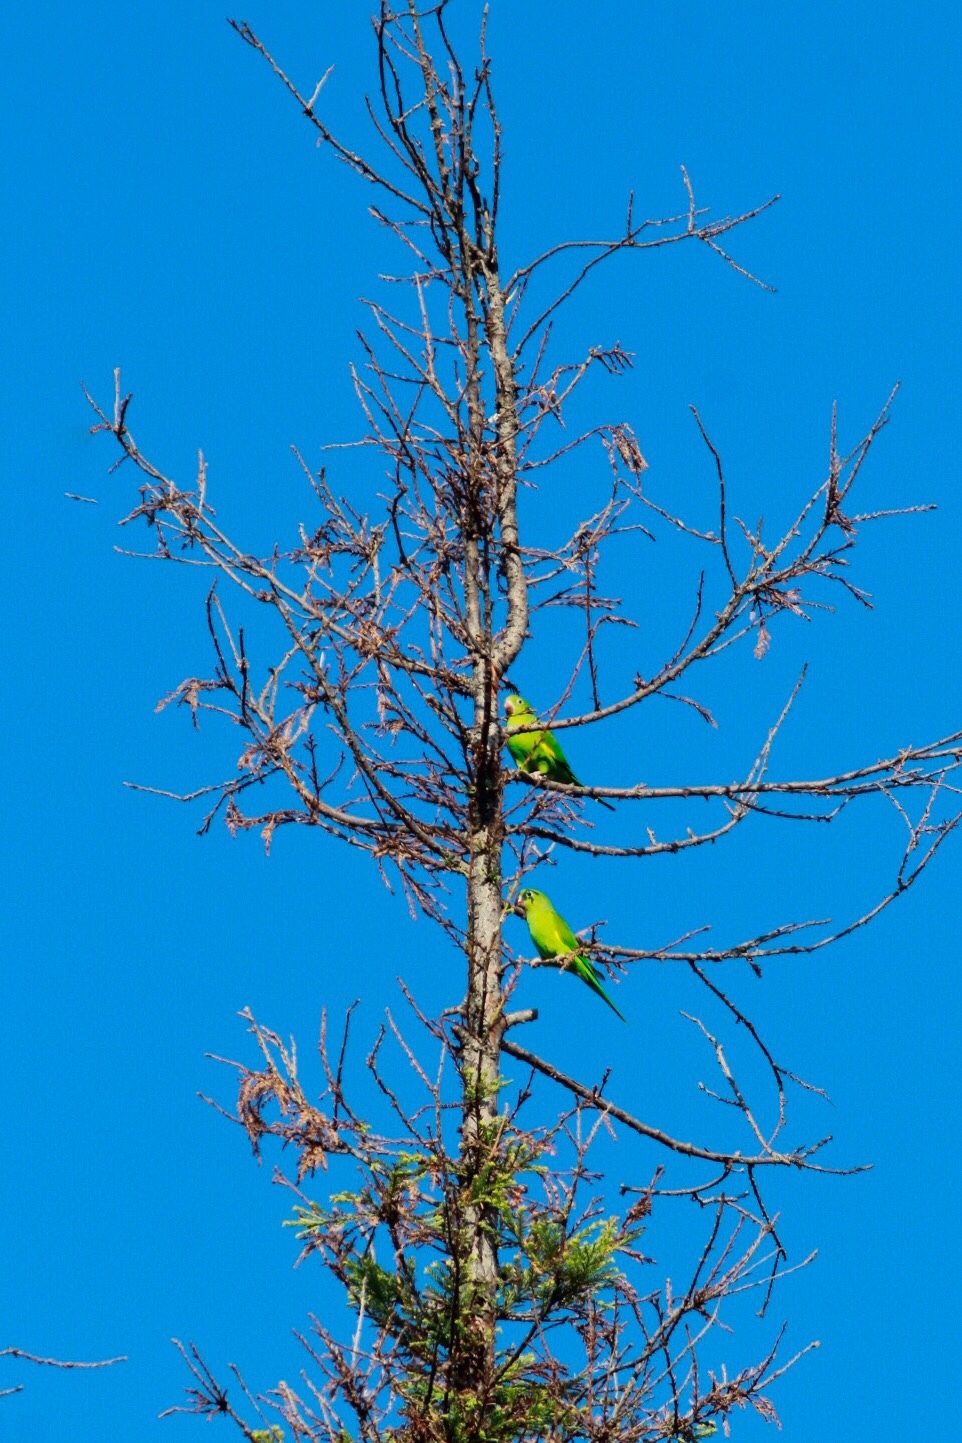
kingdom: Animalia
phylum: Chordata
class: Aves
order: Psittaciformes
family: Psittacidae
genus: Brotogeris
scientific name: Brotogeris chiriri
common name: Yellow-chevroned parakeet
